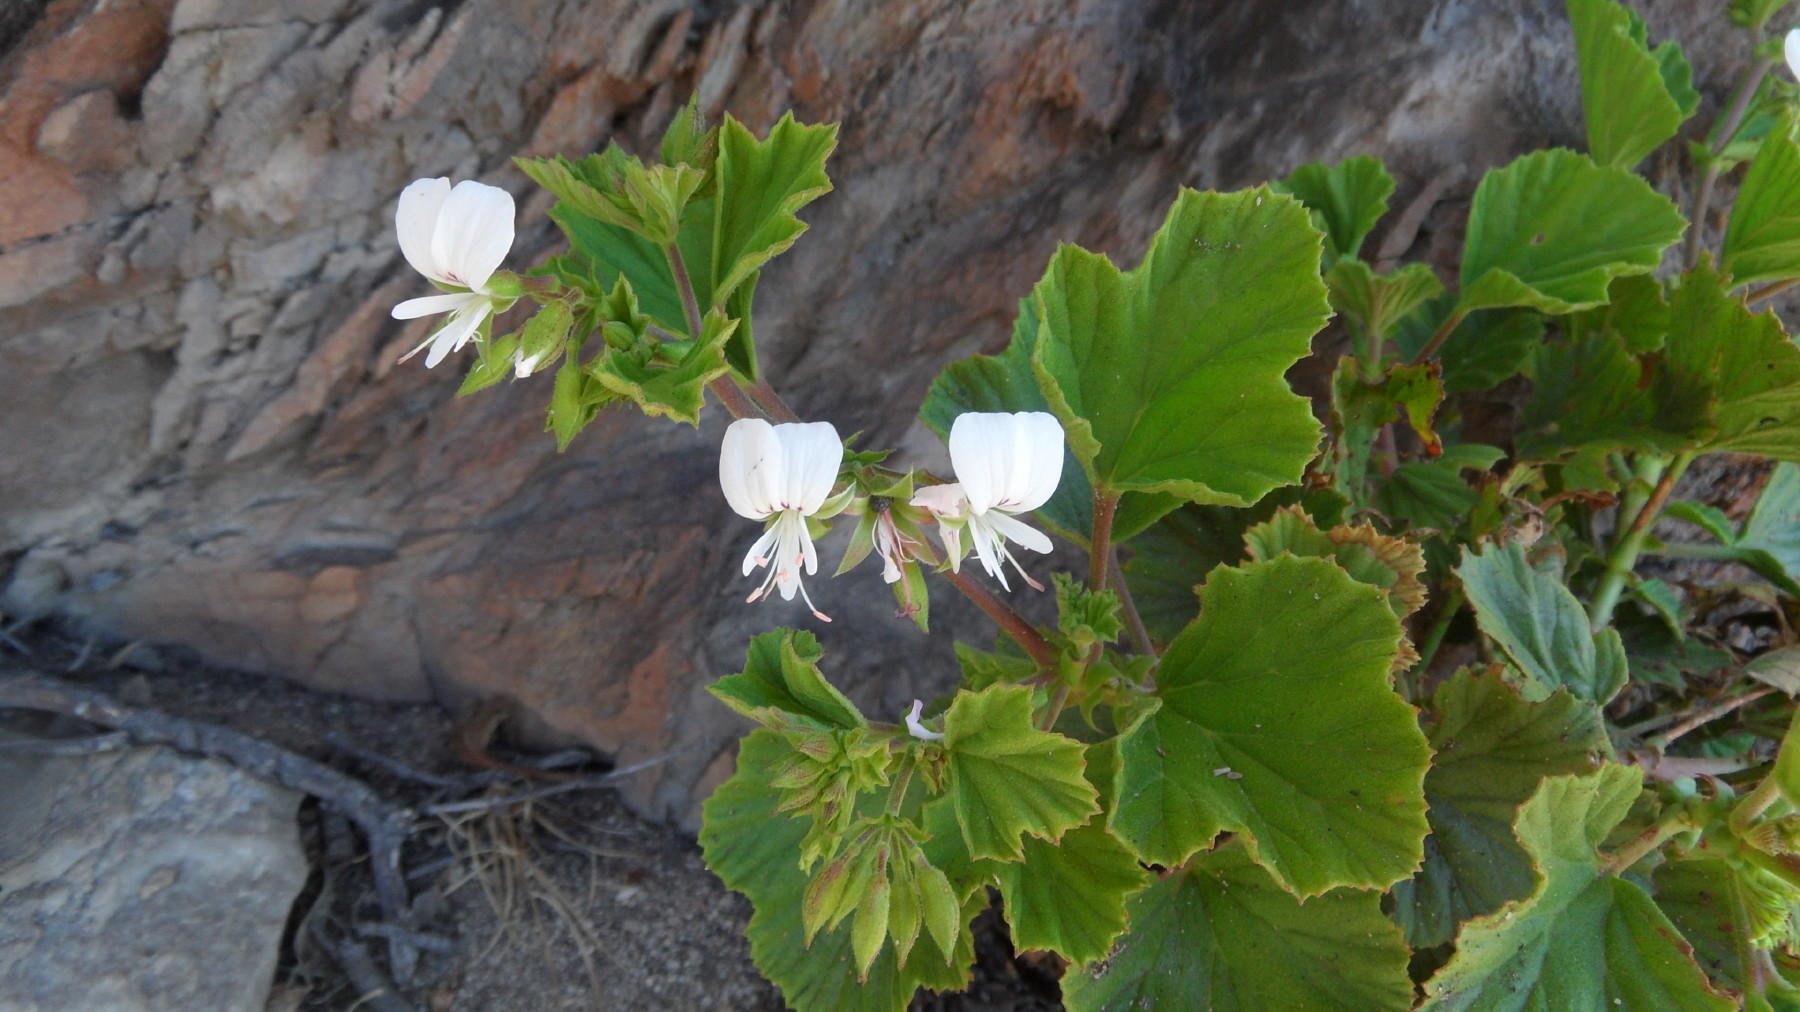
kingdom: Plantae
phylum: Tracheophyta
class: Magnoliopsida
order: Geraniales
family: Geraniaceae
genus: Pelargonium
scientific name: Pelargonium ribifolium
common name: Currant-leaf pelargonium
